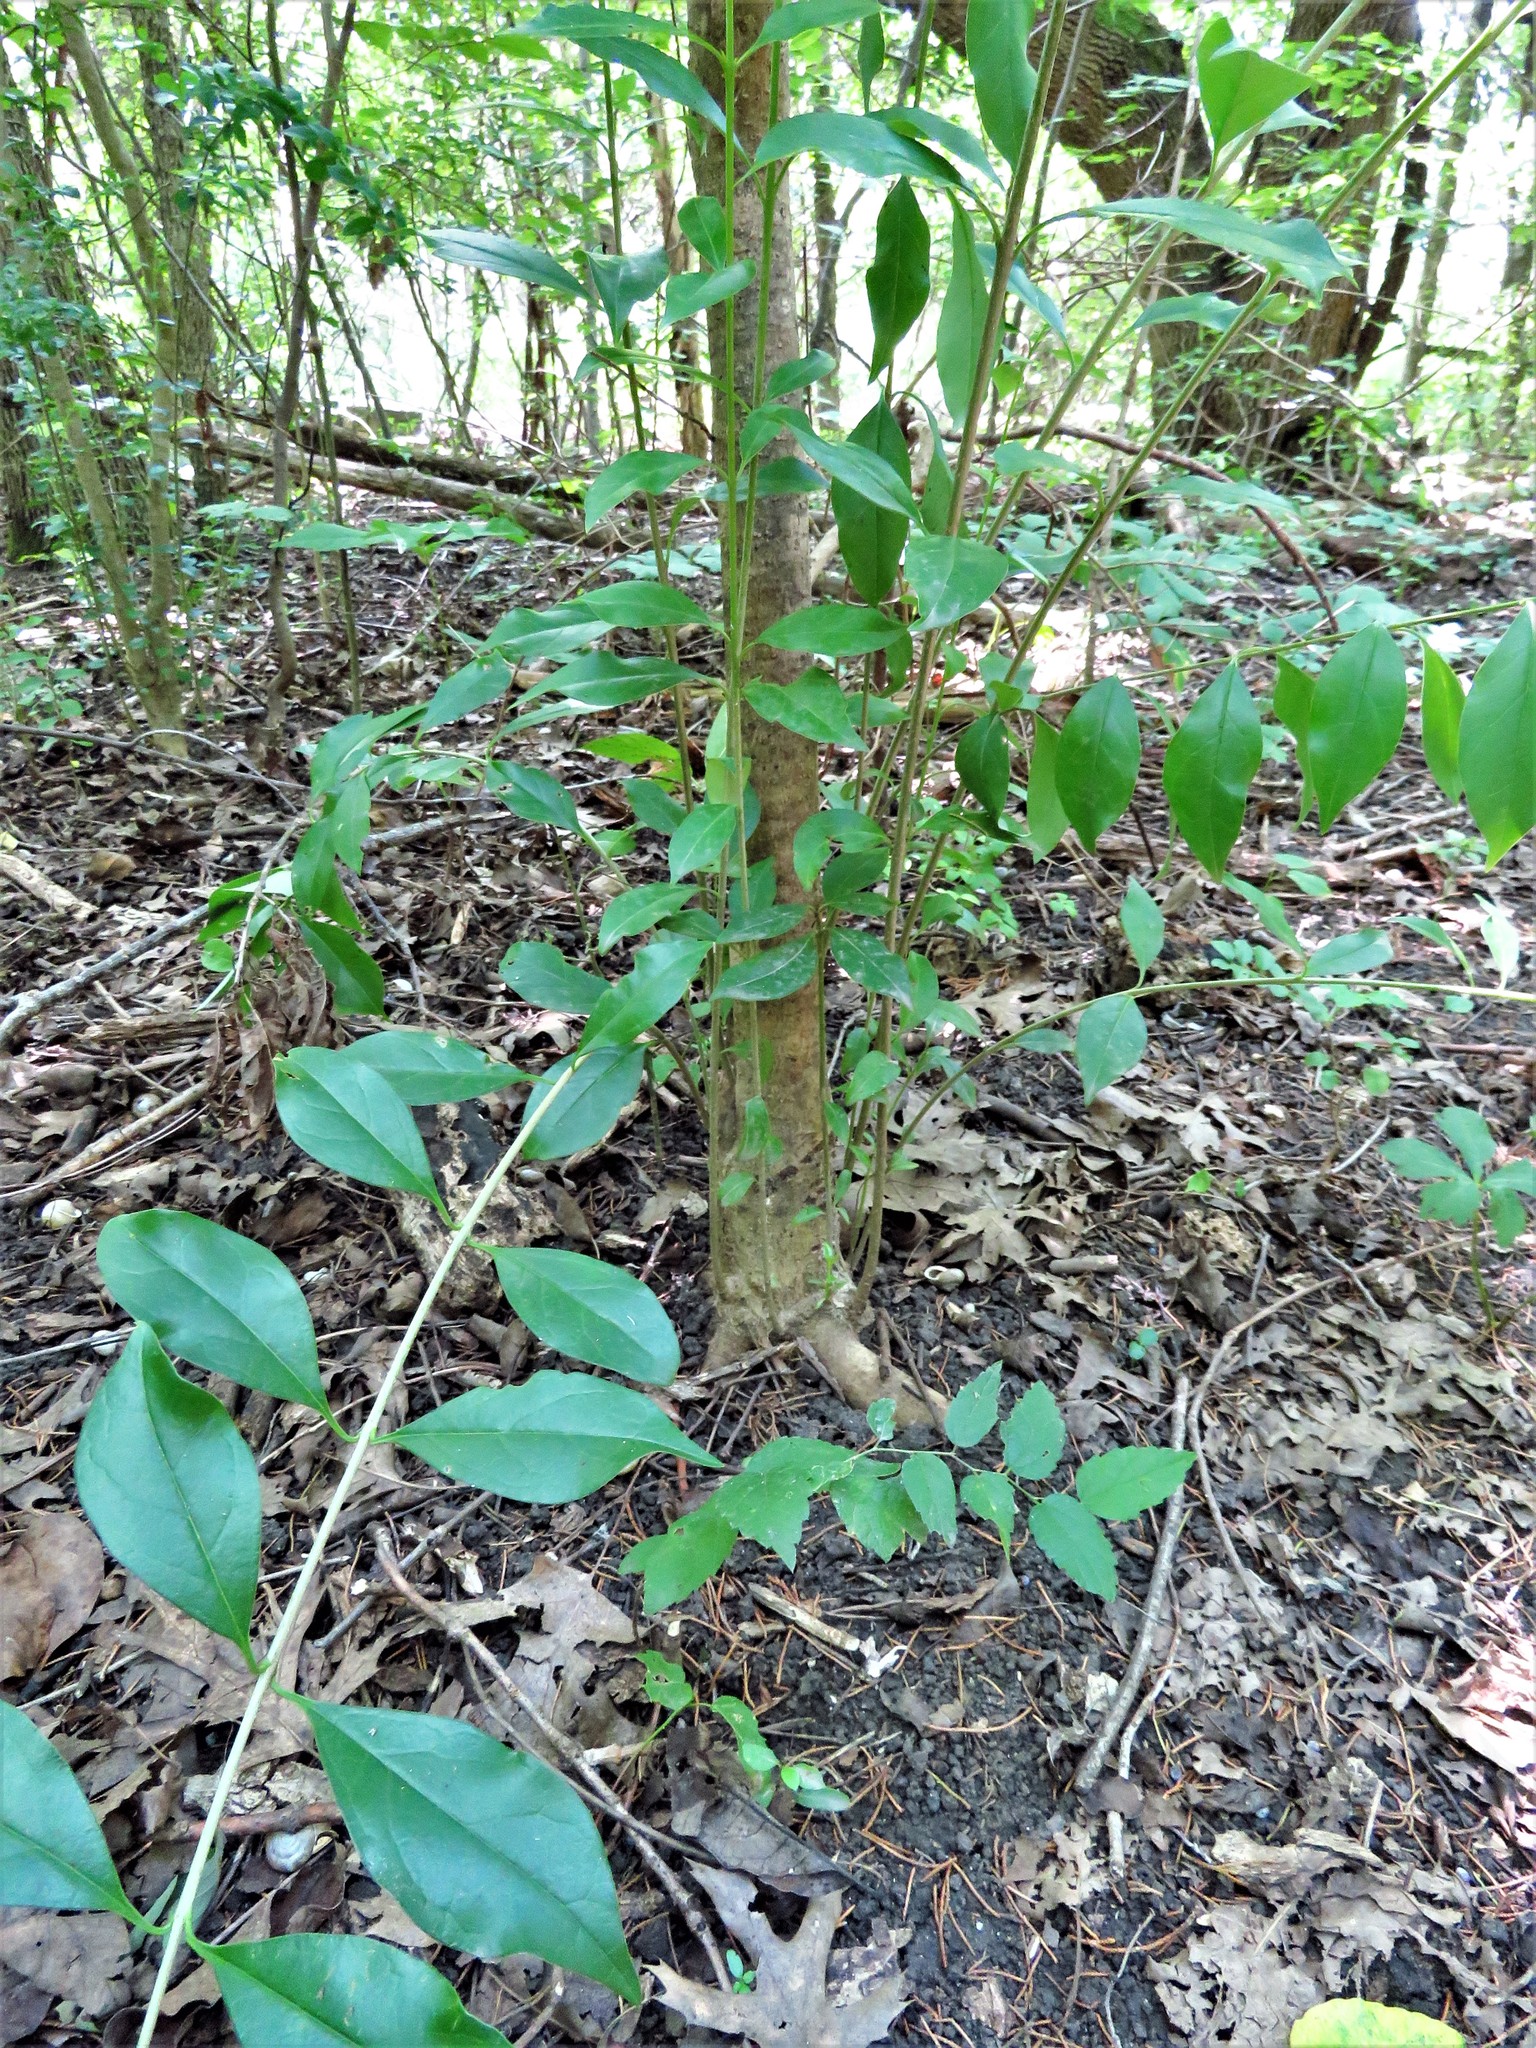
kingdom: Plantae
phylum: Tracheophyta
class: Magnoliopsida
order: Lamiales
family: Oleaceae
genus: Ligustrum
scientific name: Ligustrum lucidum
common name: Glossy privet
